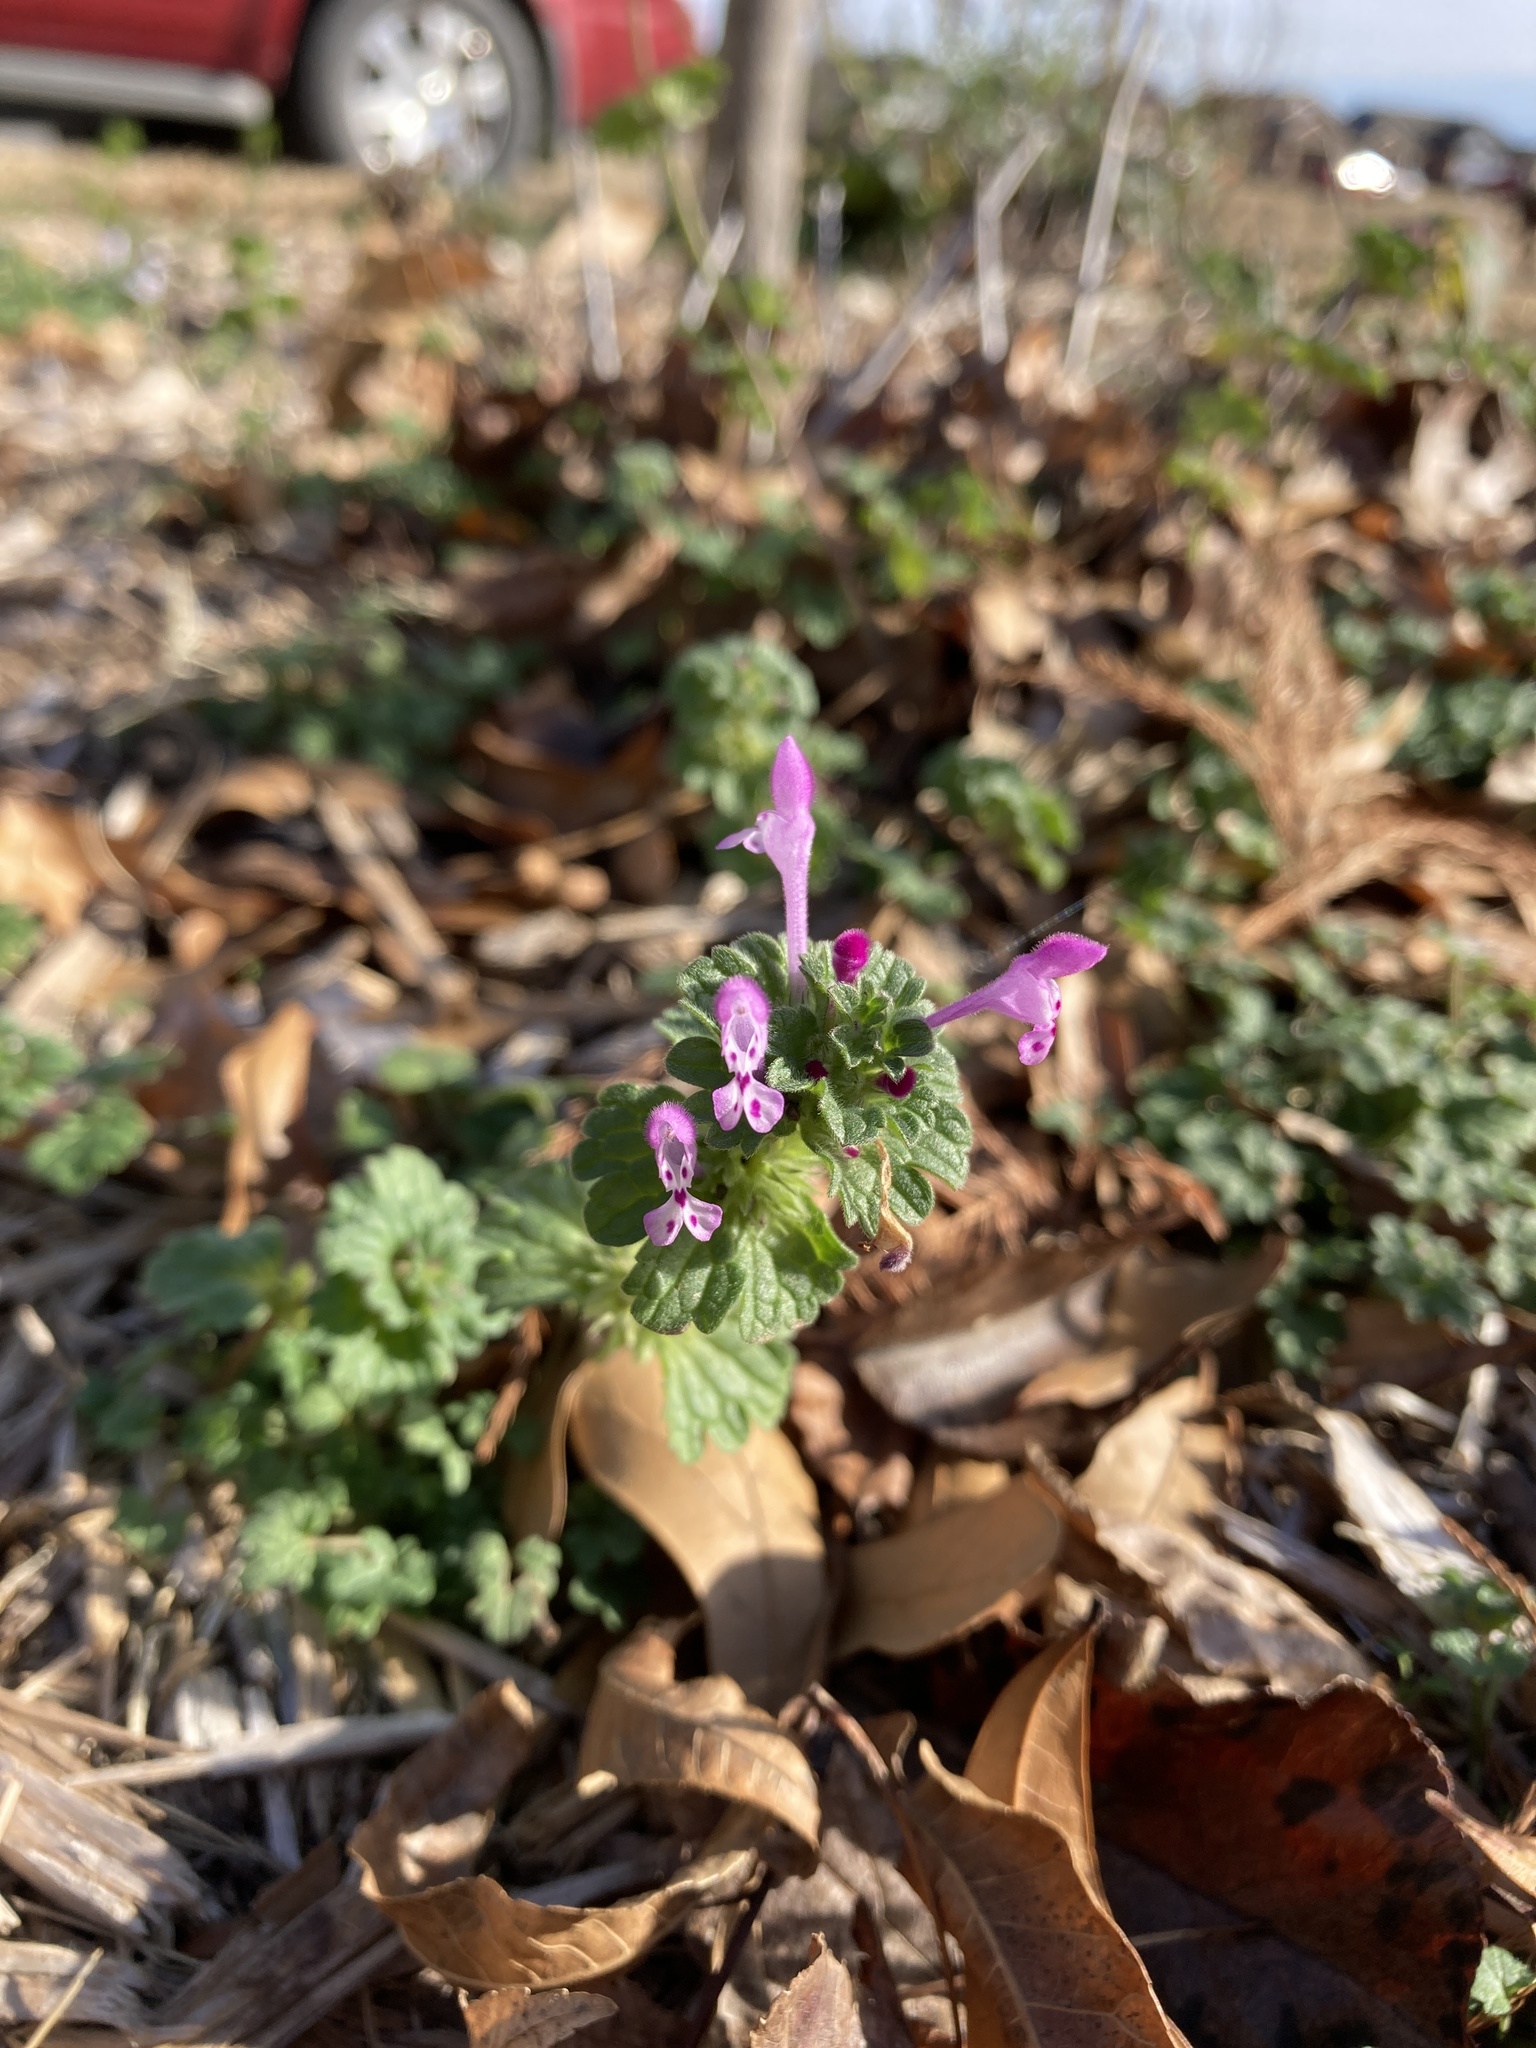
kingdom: Plantae
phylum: Tracheophyta
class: Magnoliopsida
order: Lamiales
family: Lamiaceae
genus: Lamium
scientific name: Lamium amplexicaule
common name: Henbit dead-nettle
